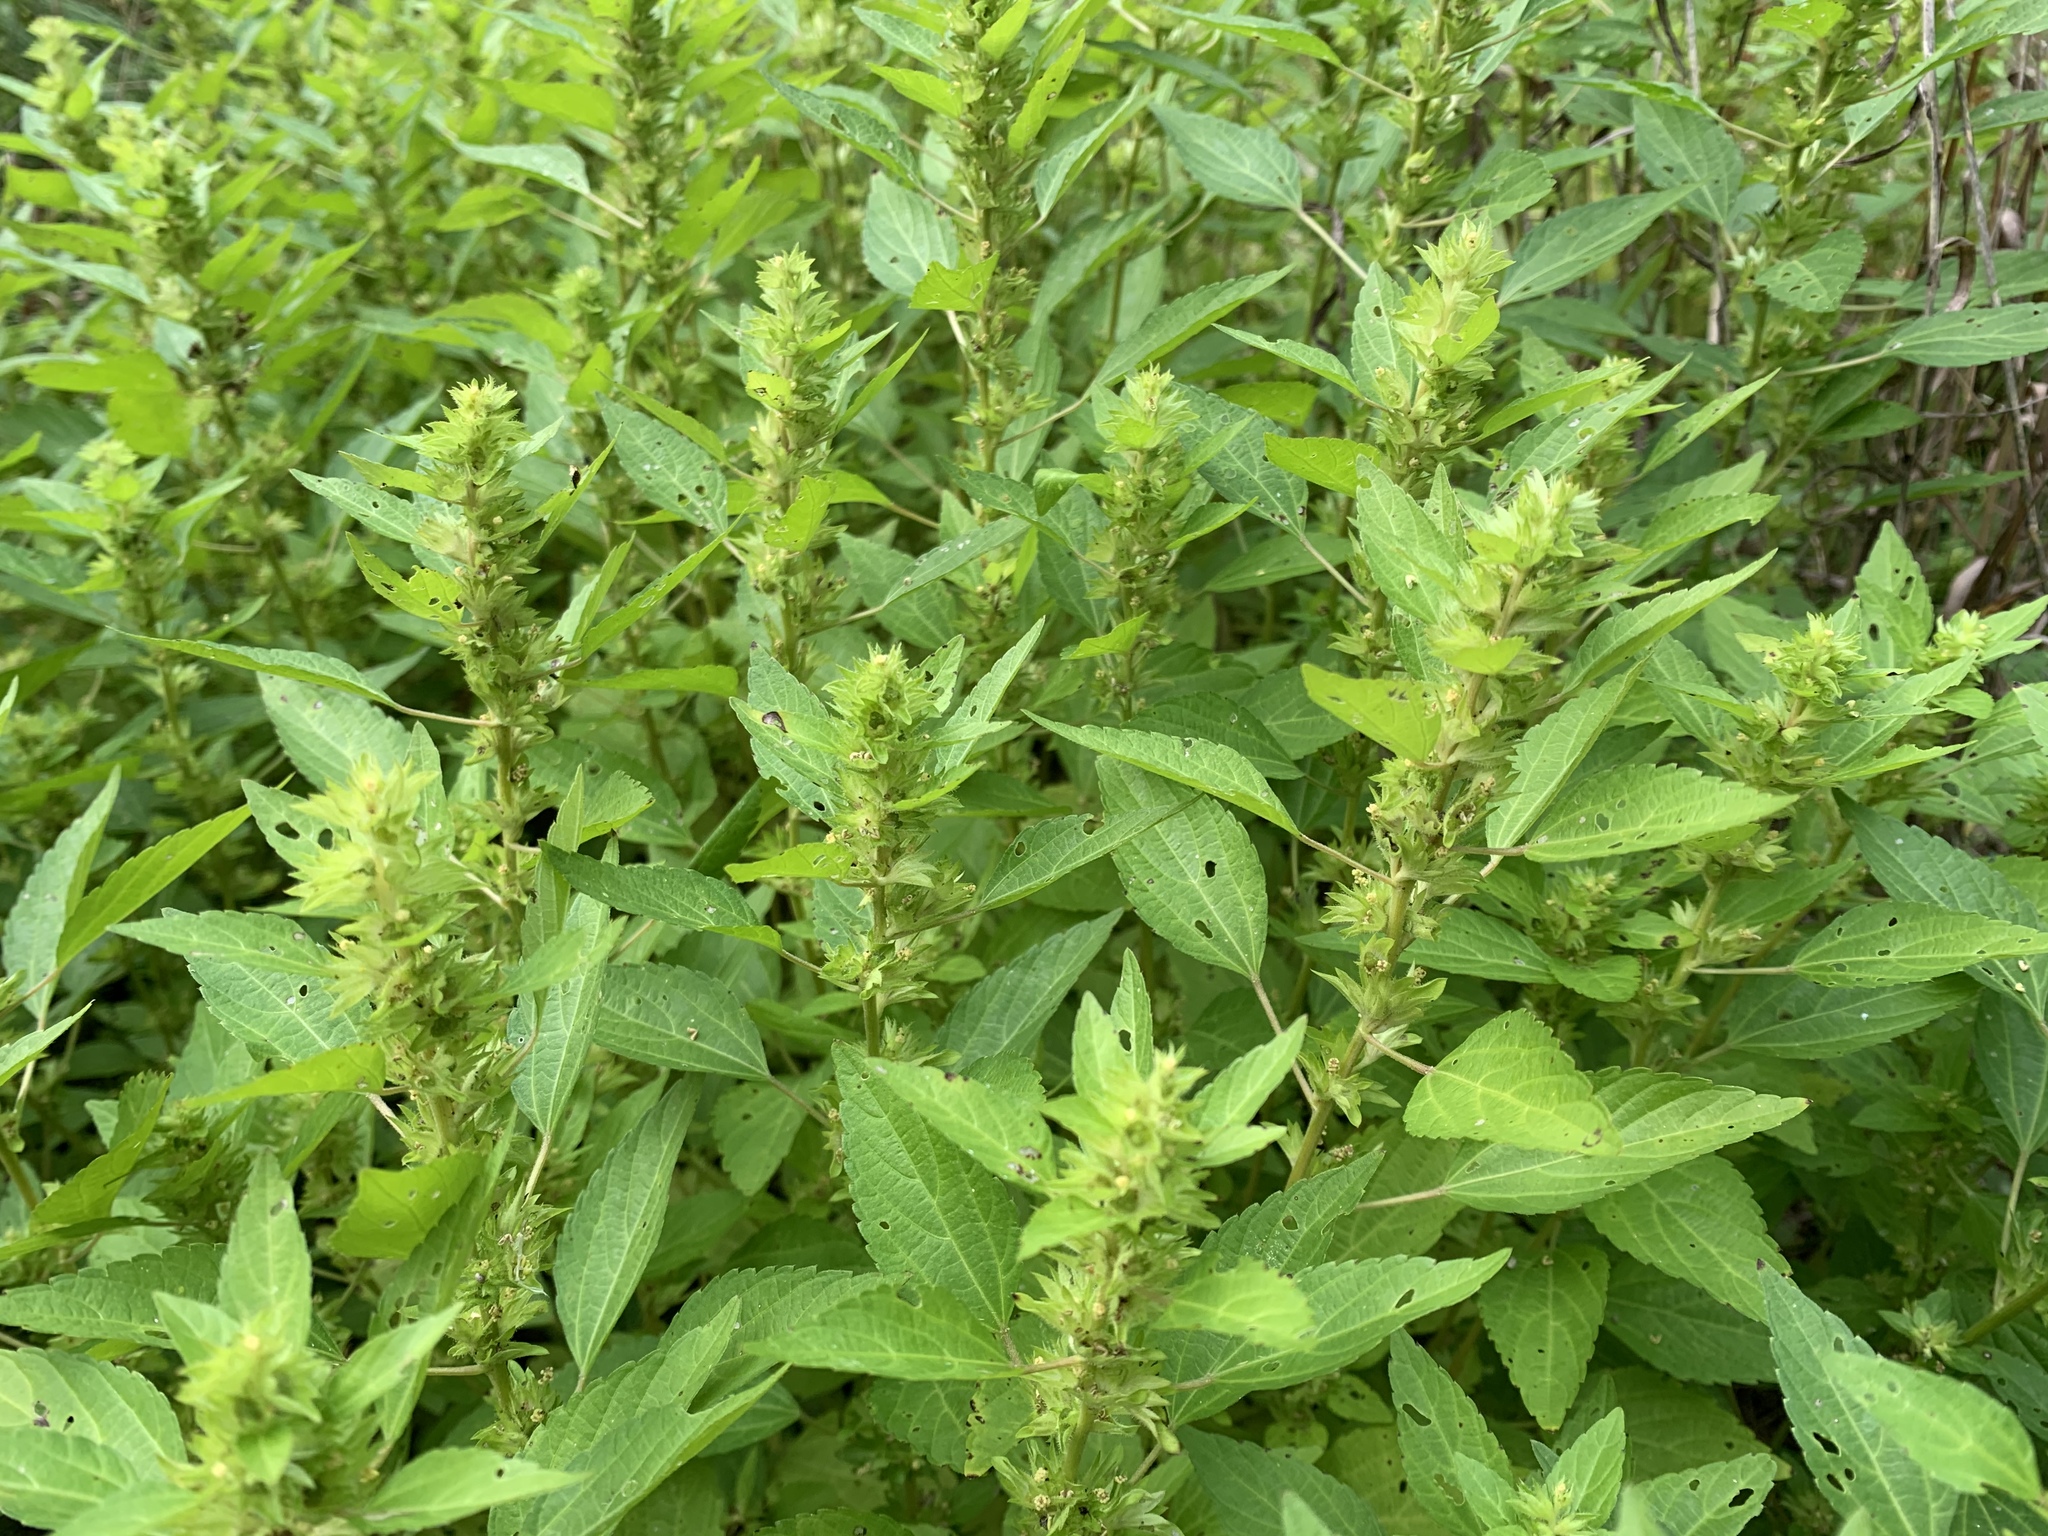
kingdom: Plantae
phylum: Tracheophyta
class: Magnoliopsida
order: Malpighiales
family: Euphorbiaceae
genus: Acalypha
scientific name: Acalypha rhomboidea
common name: Rhombic copperleaf
